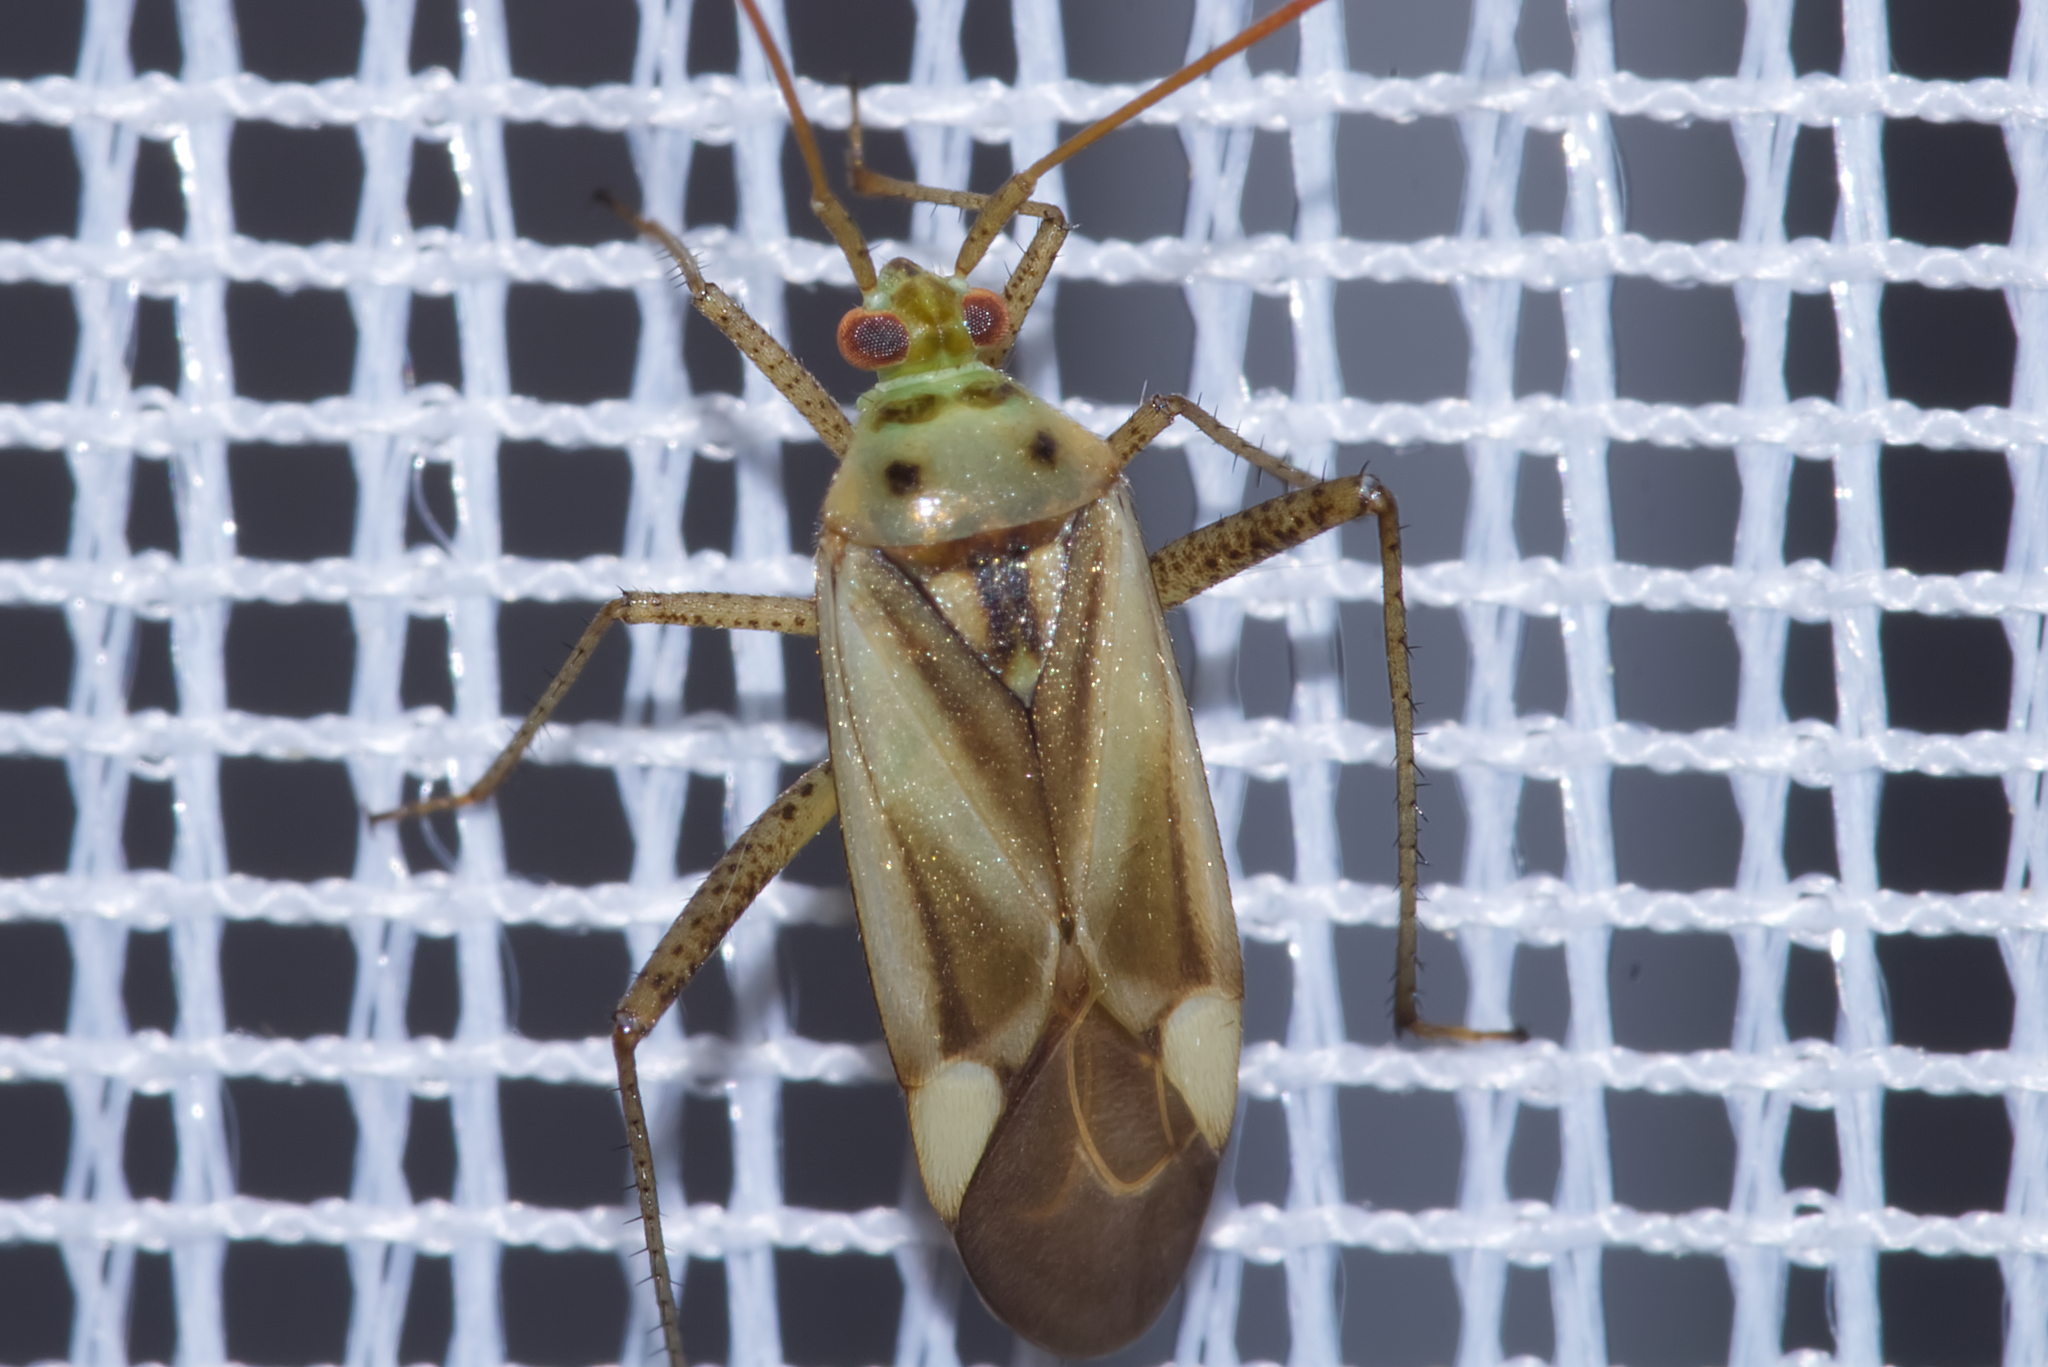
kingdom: Animalia
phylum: Arthropoda
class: Insecta
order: Hemiptera
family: Miridae
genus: Adelphocoris
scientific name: Adelphocoris lineolatus
